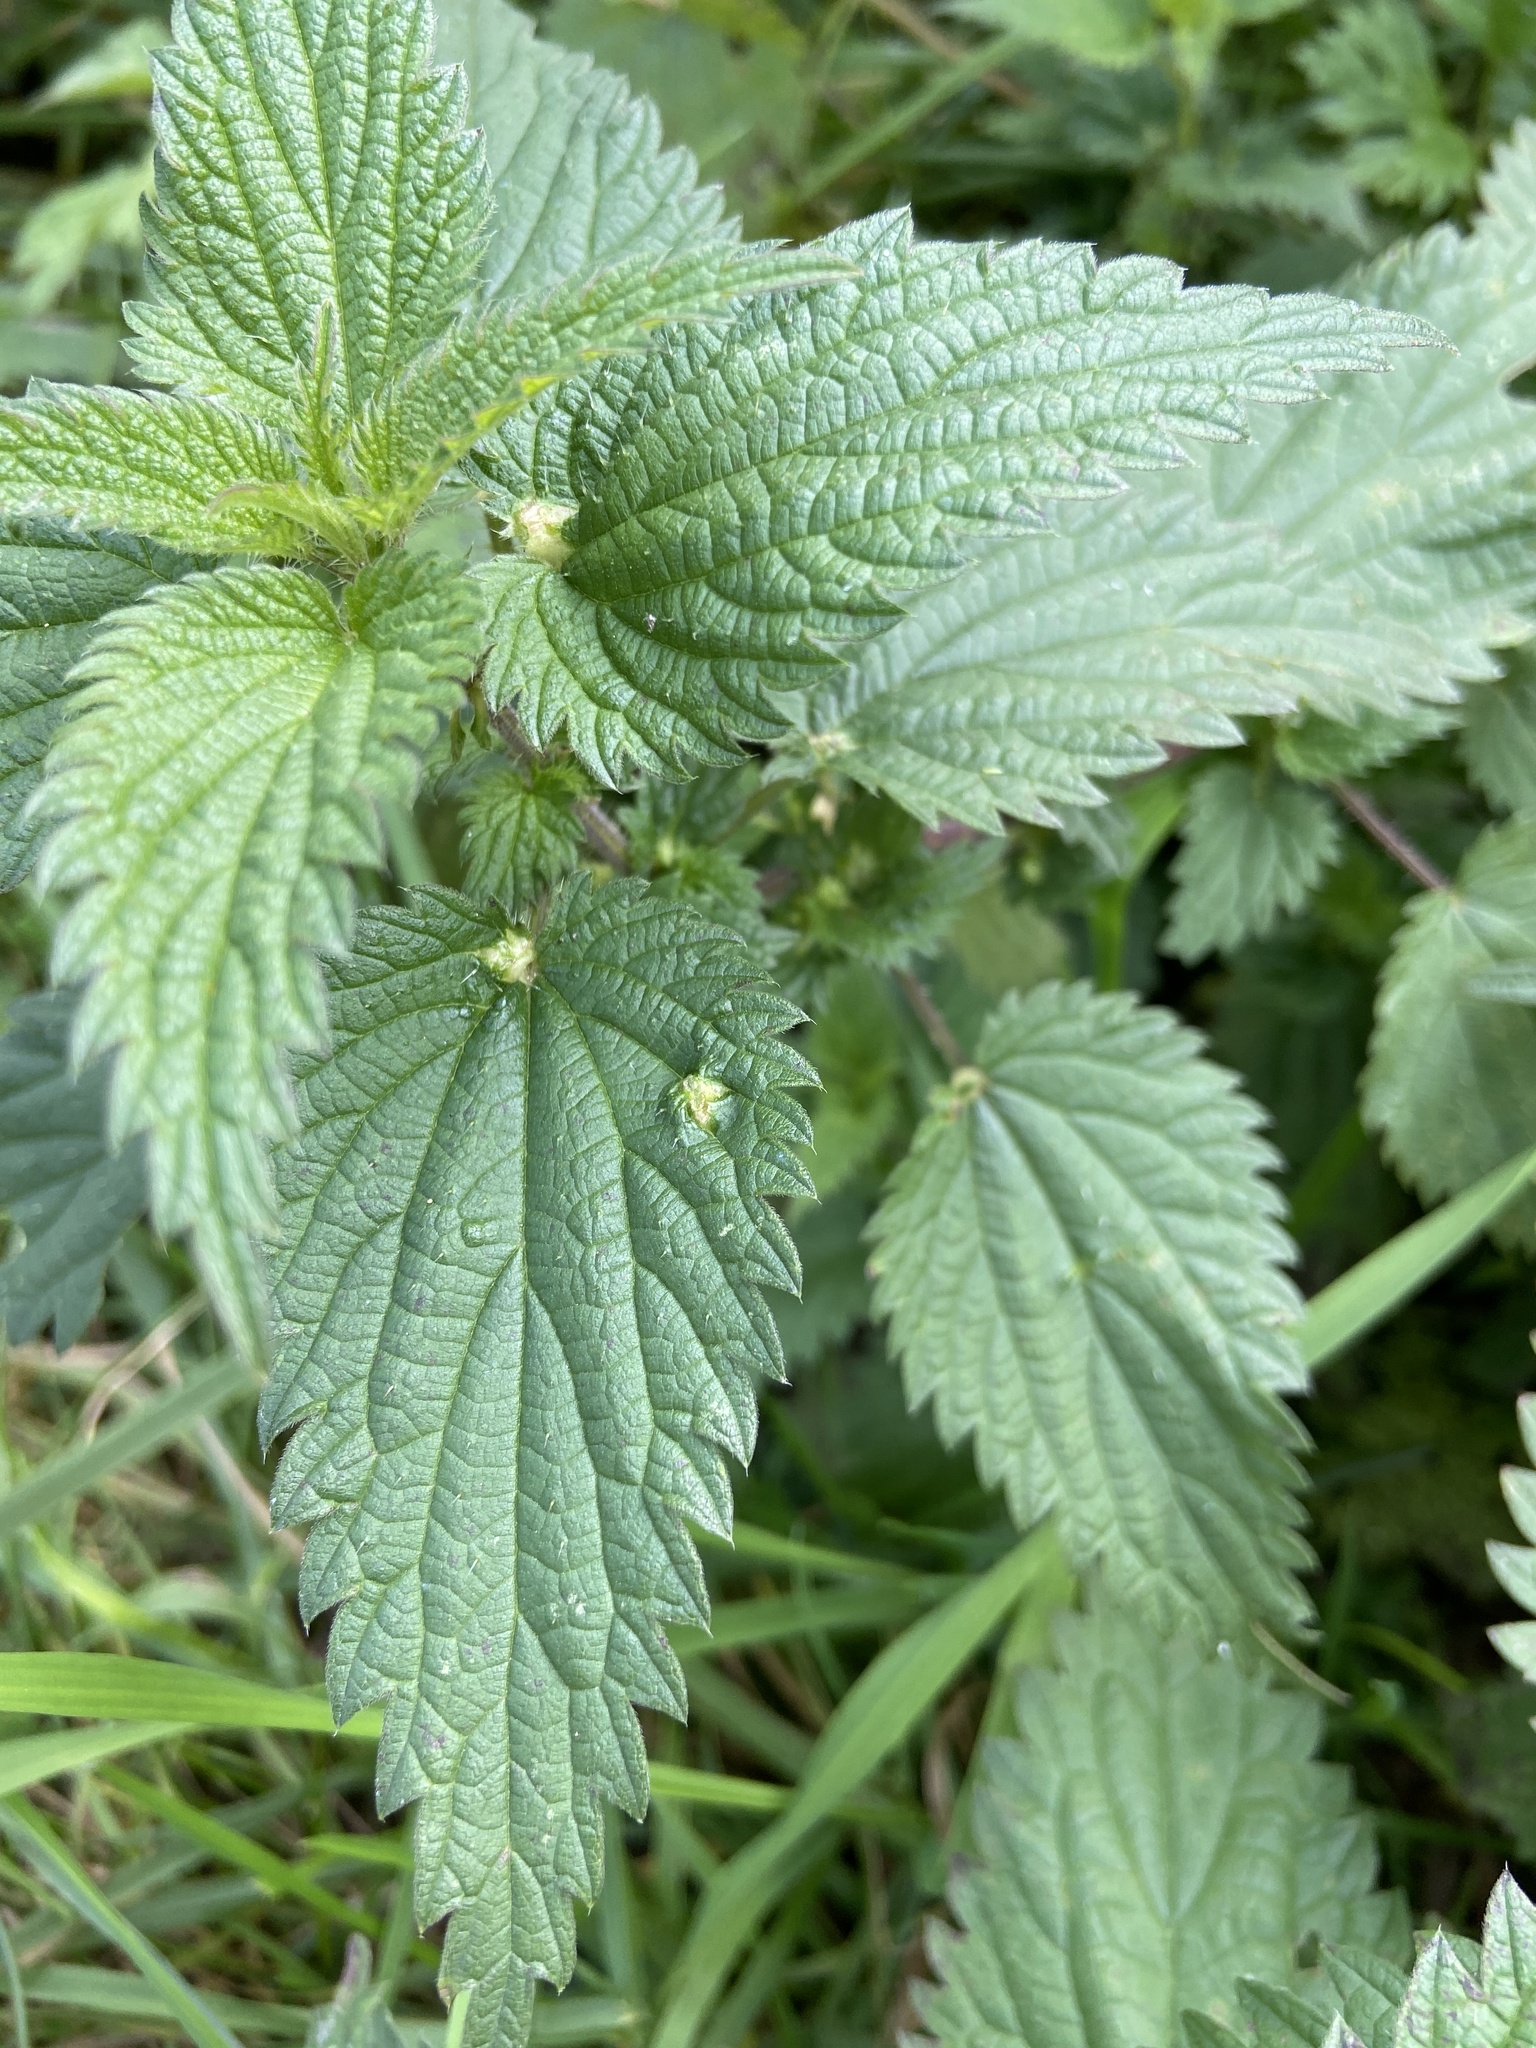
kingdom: Animalia
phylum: Arthropoda
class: Insecta
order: Diptera
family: Cecidomyiidae
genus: Dasineura
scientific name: Dasineura urticae
